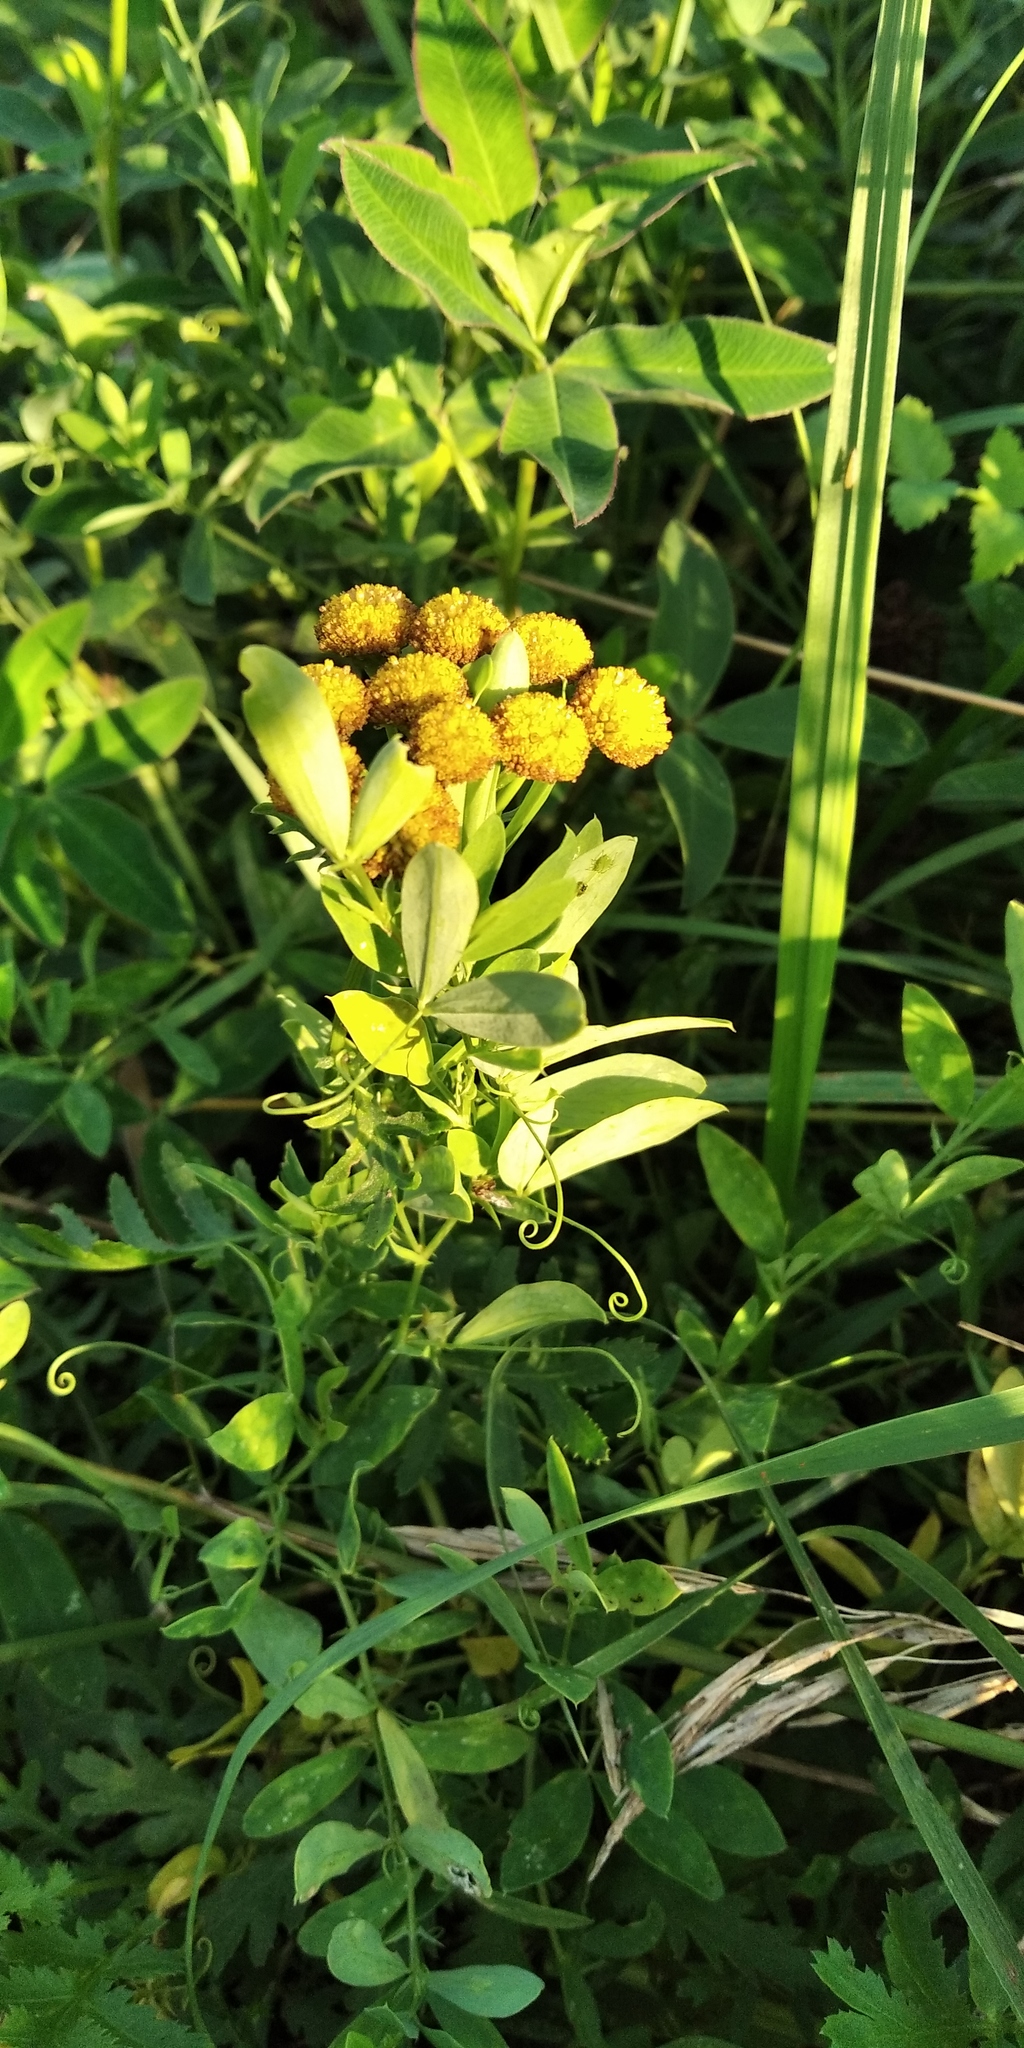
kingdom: Plantae
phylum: Tracheophyta
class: Magnoliopsida
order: Asterales
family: Asteraceae
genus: Tanacetum
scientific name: Tanacetum vulgare
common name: Common tansy
